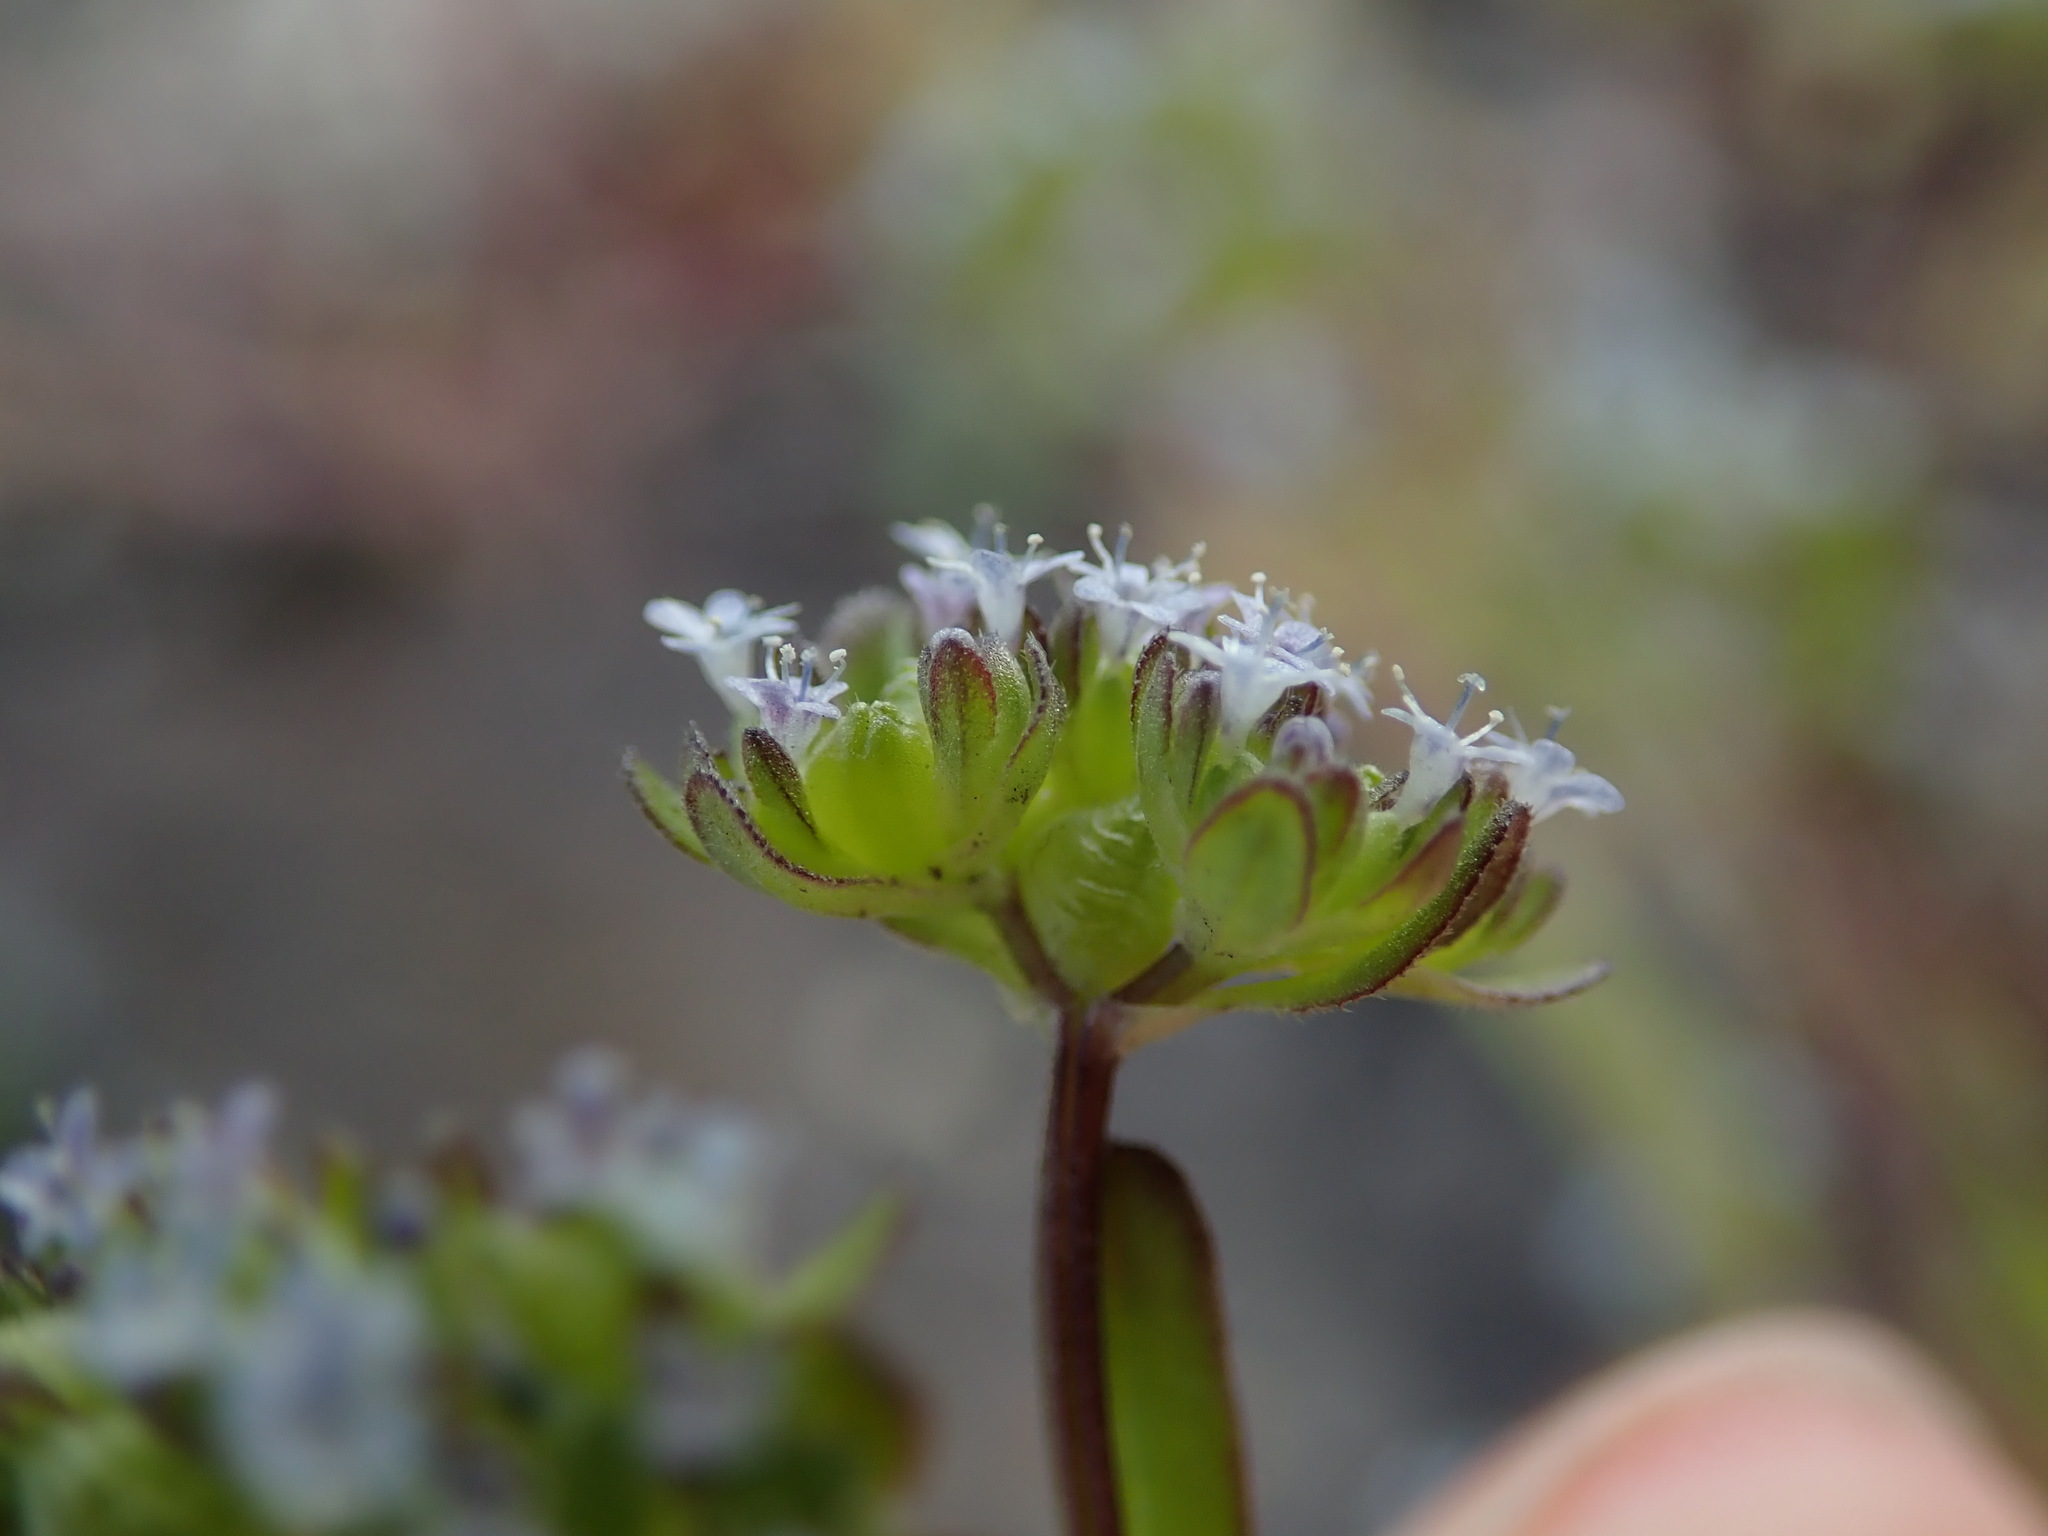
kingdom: Plantae
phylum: Tracheophyta
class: Magnoliopsida
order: Dipsacales
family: Caprifoliaceae
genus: Valerianella
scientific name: Valerianella locusta
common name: Common cornsalad
